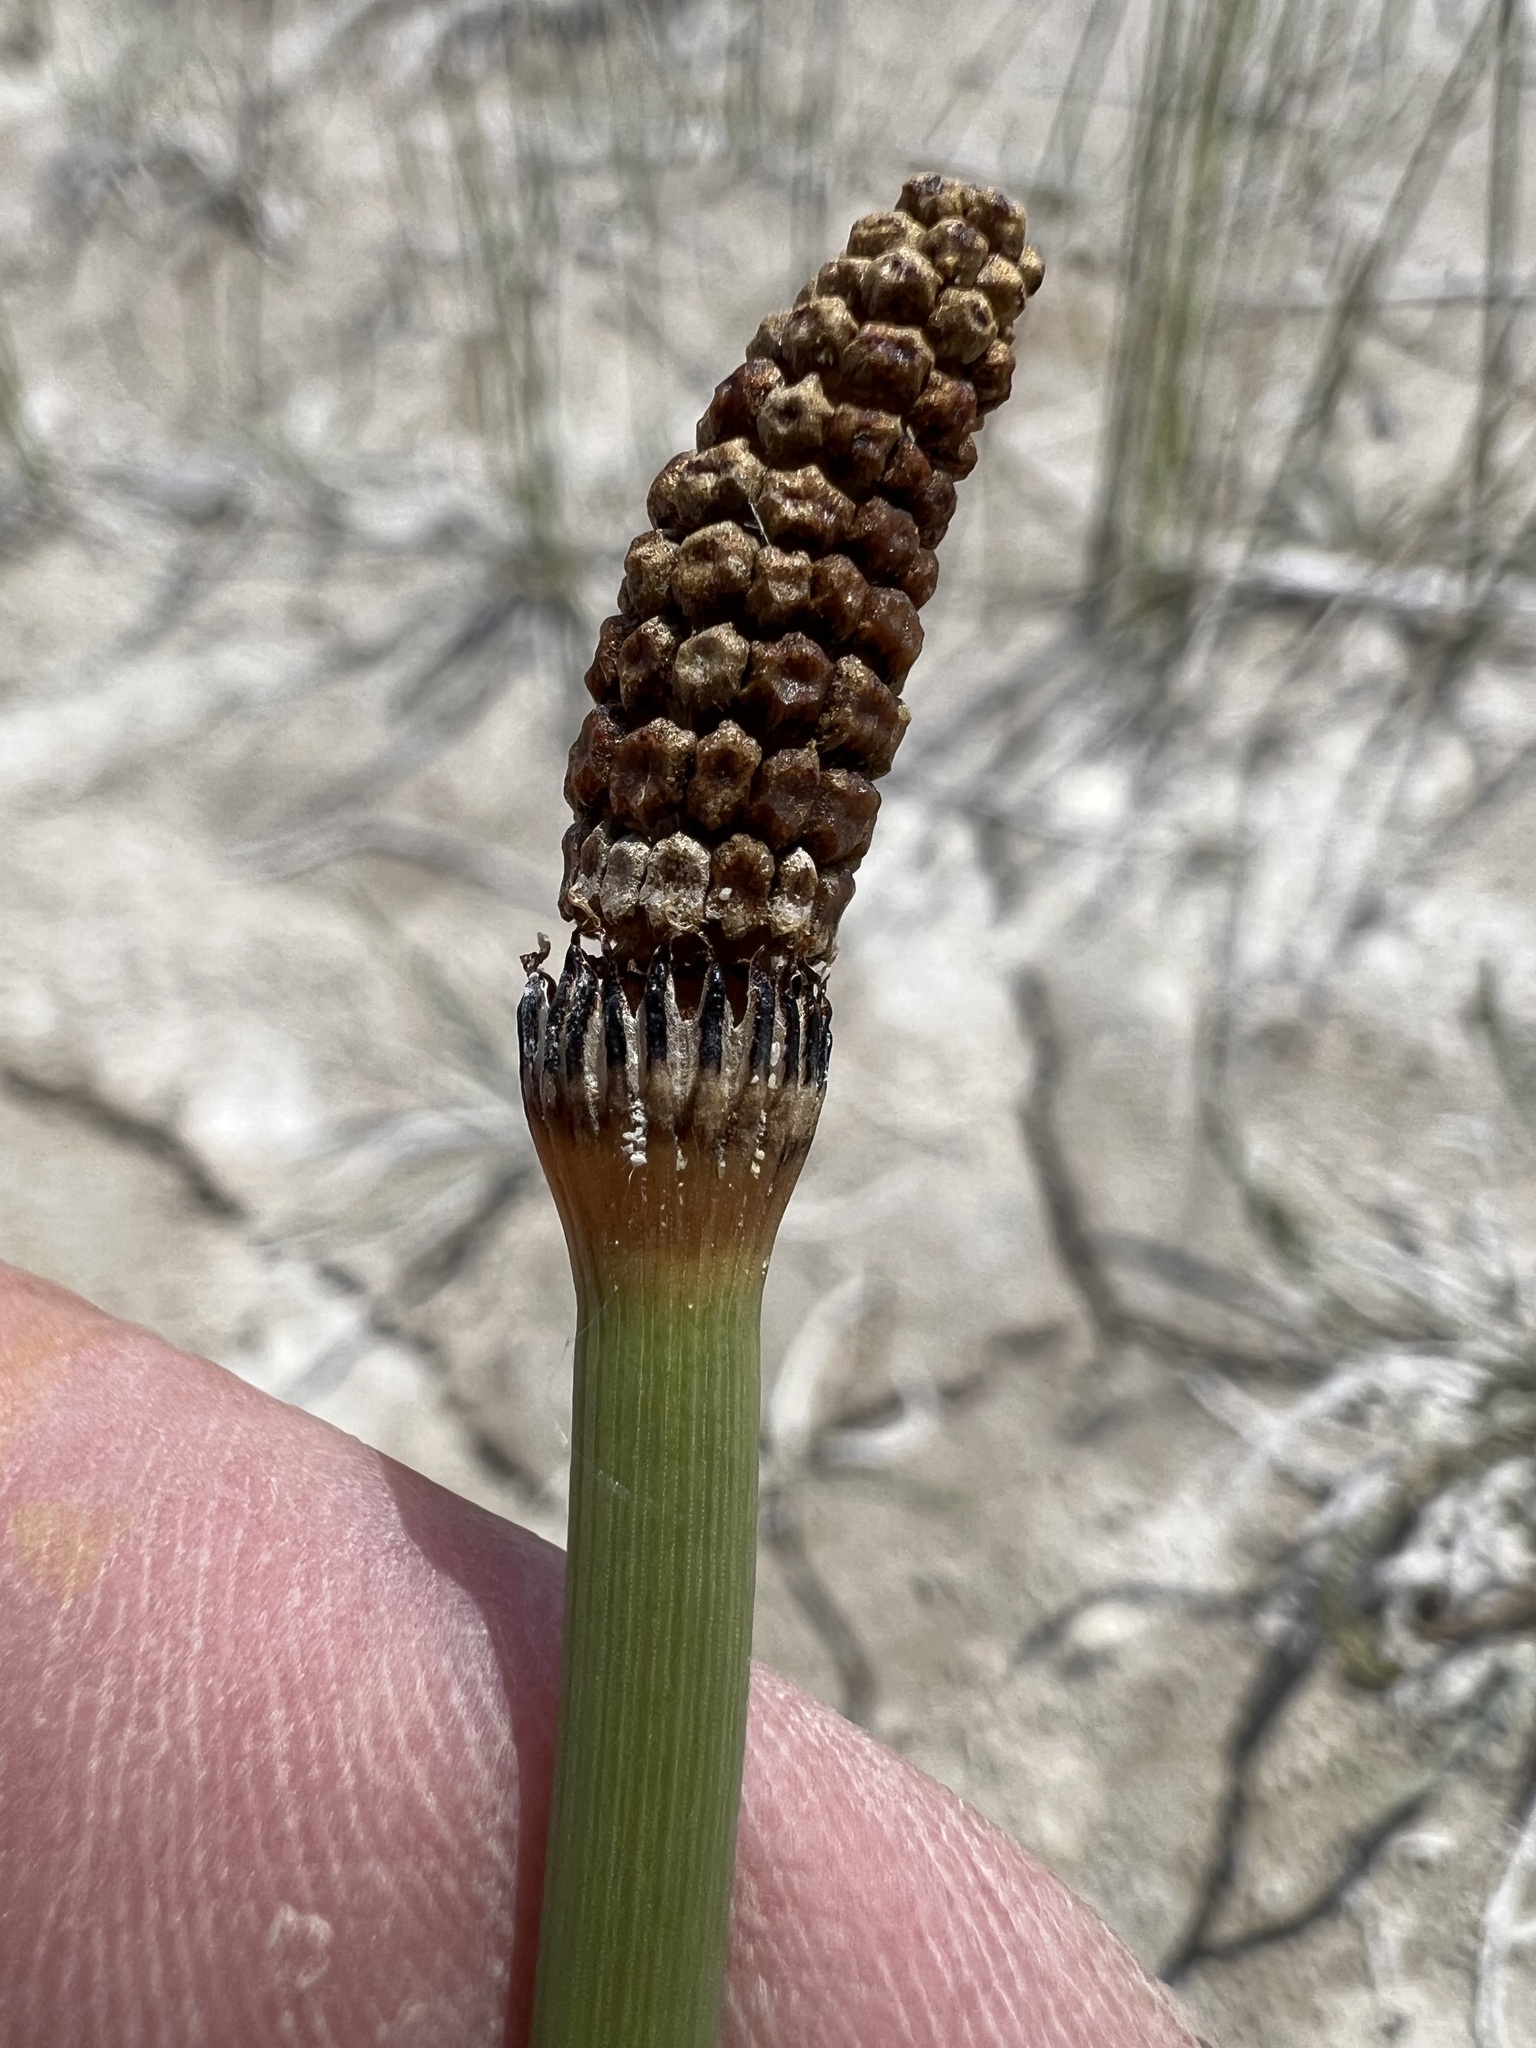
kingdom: Plantae
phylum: Tracheophyta
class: Polypodiopsida
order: Equisetales
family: Equisetaceae
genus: Equisetum
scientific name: Equisetum laevigatum
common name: Smooth scouring-rush
